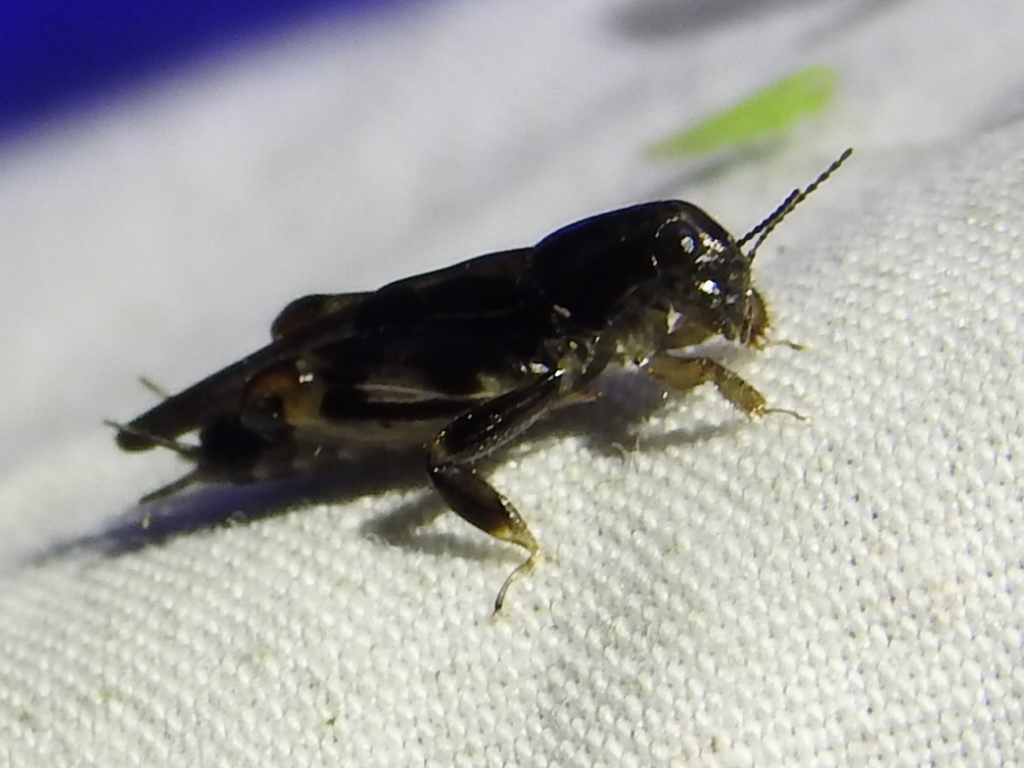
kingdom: Animalia
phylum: Arthropoda
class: Insecta
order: Orthoptera
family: Tridactylidae
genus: Neotridactylus
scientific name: Neotridactylus apicialis
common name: Larger pygmy locust
